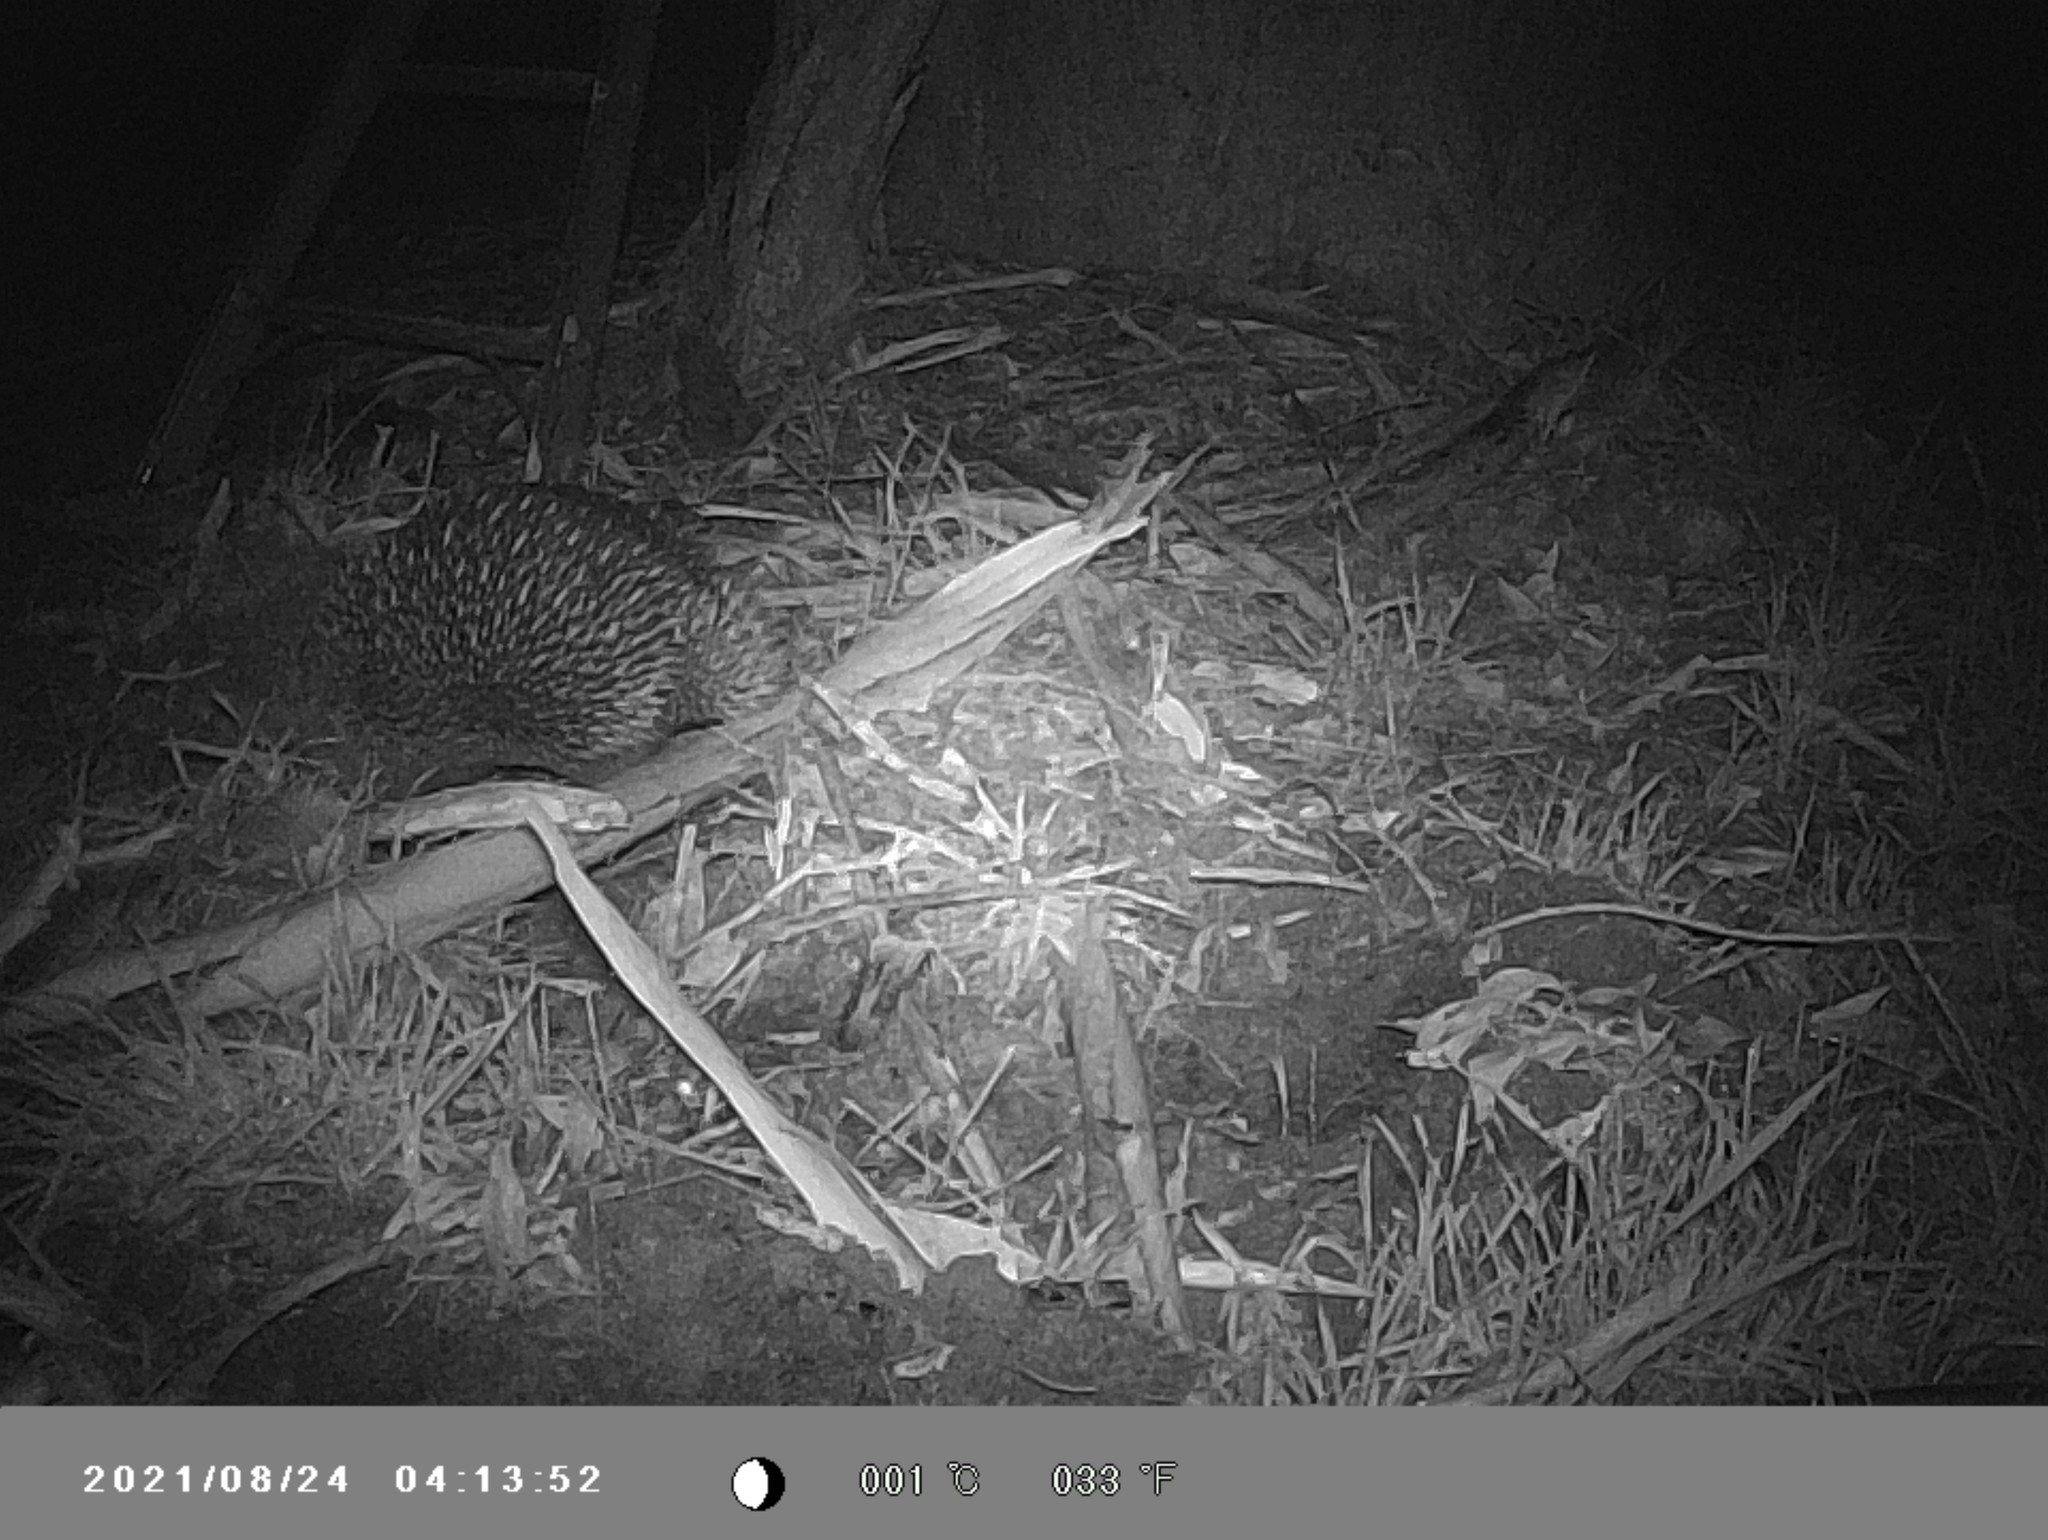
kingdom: Animalia
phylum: Chordata
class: Mammalia
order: Monotremata
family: Tachyglossidae
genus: Tachyglossus
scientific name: Tachyglossus aculeatus
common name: Short-beaked echidna
